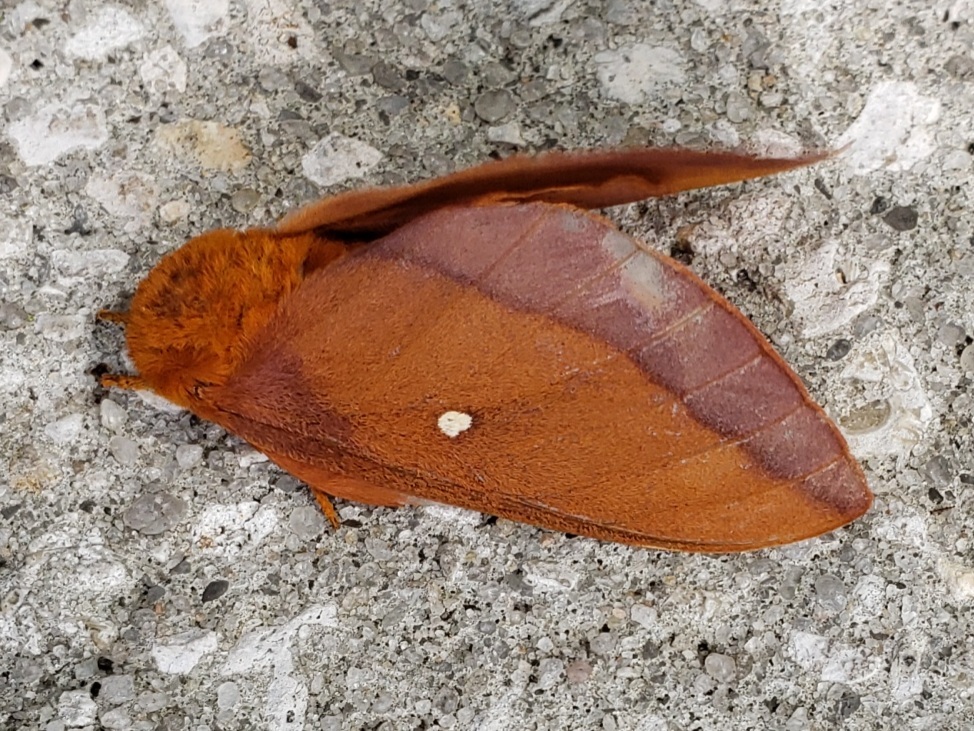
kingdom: Animalia
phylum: Arthropoda
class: Insecta
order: Lepidoptera
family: Saturniidae
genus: Anisota
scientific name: Anisota virginiensis
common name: Pink striped oakworm moth
